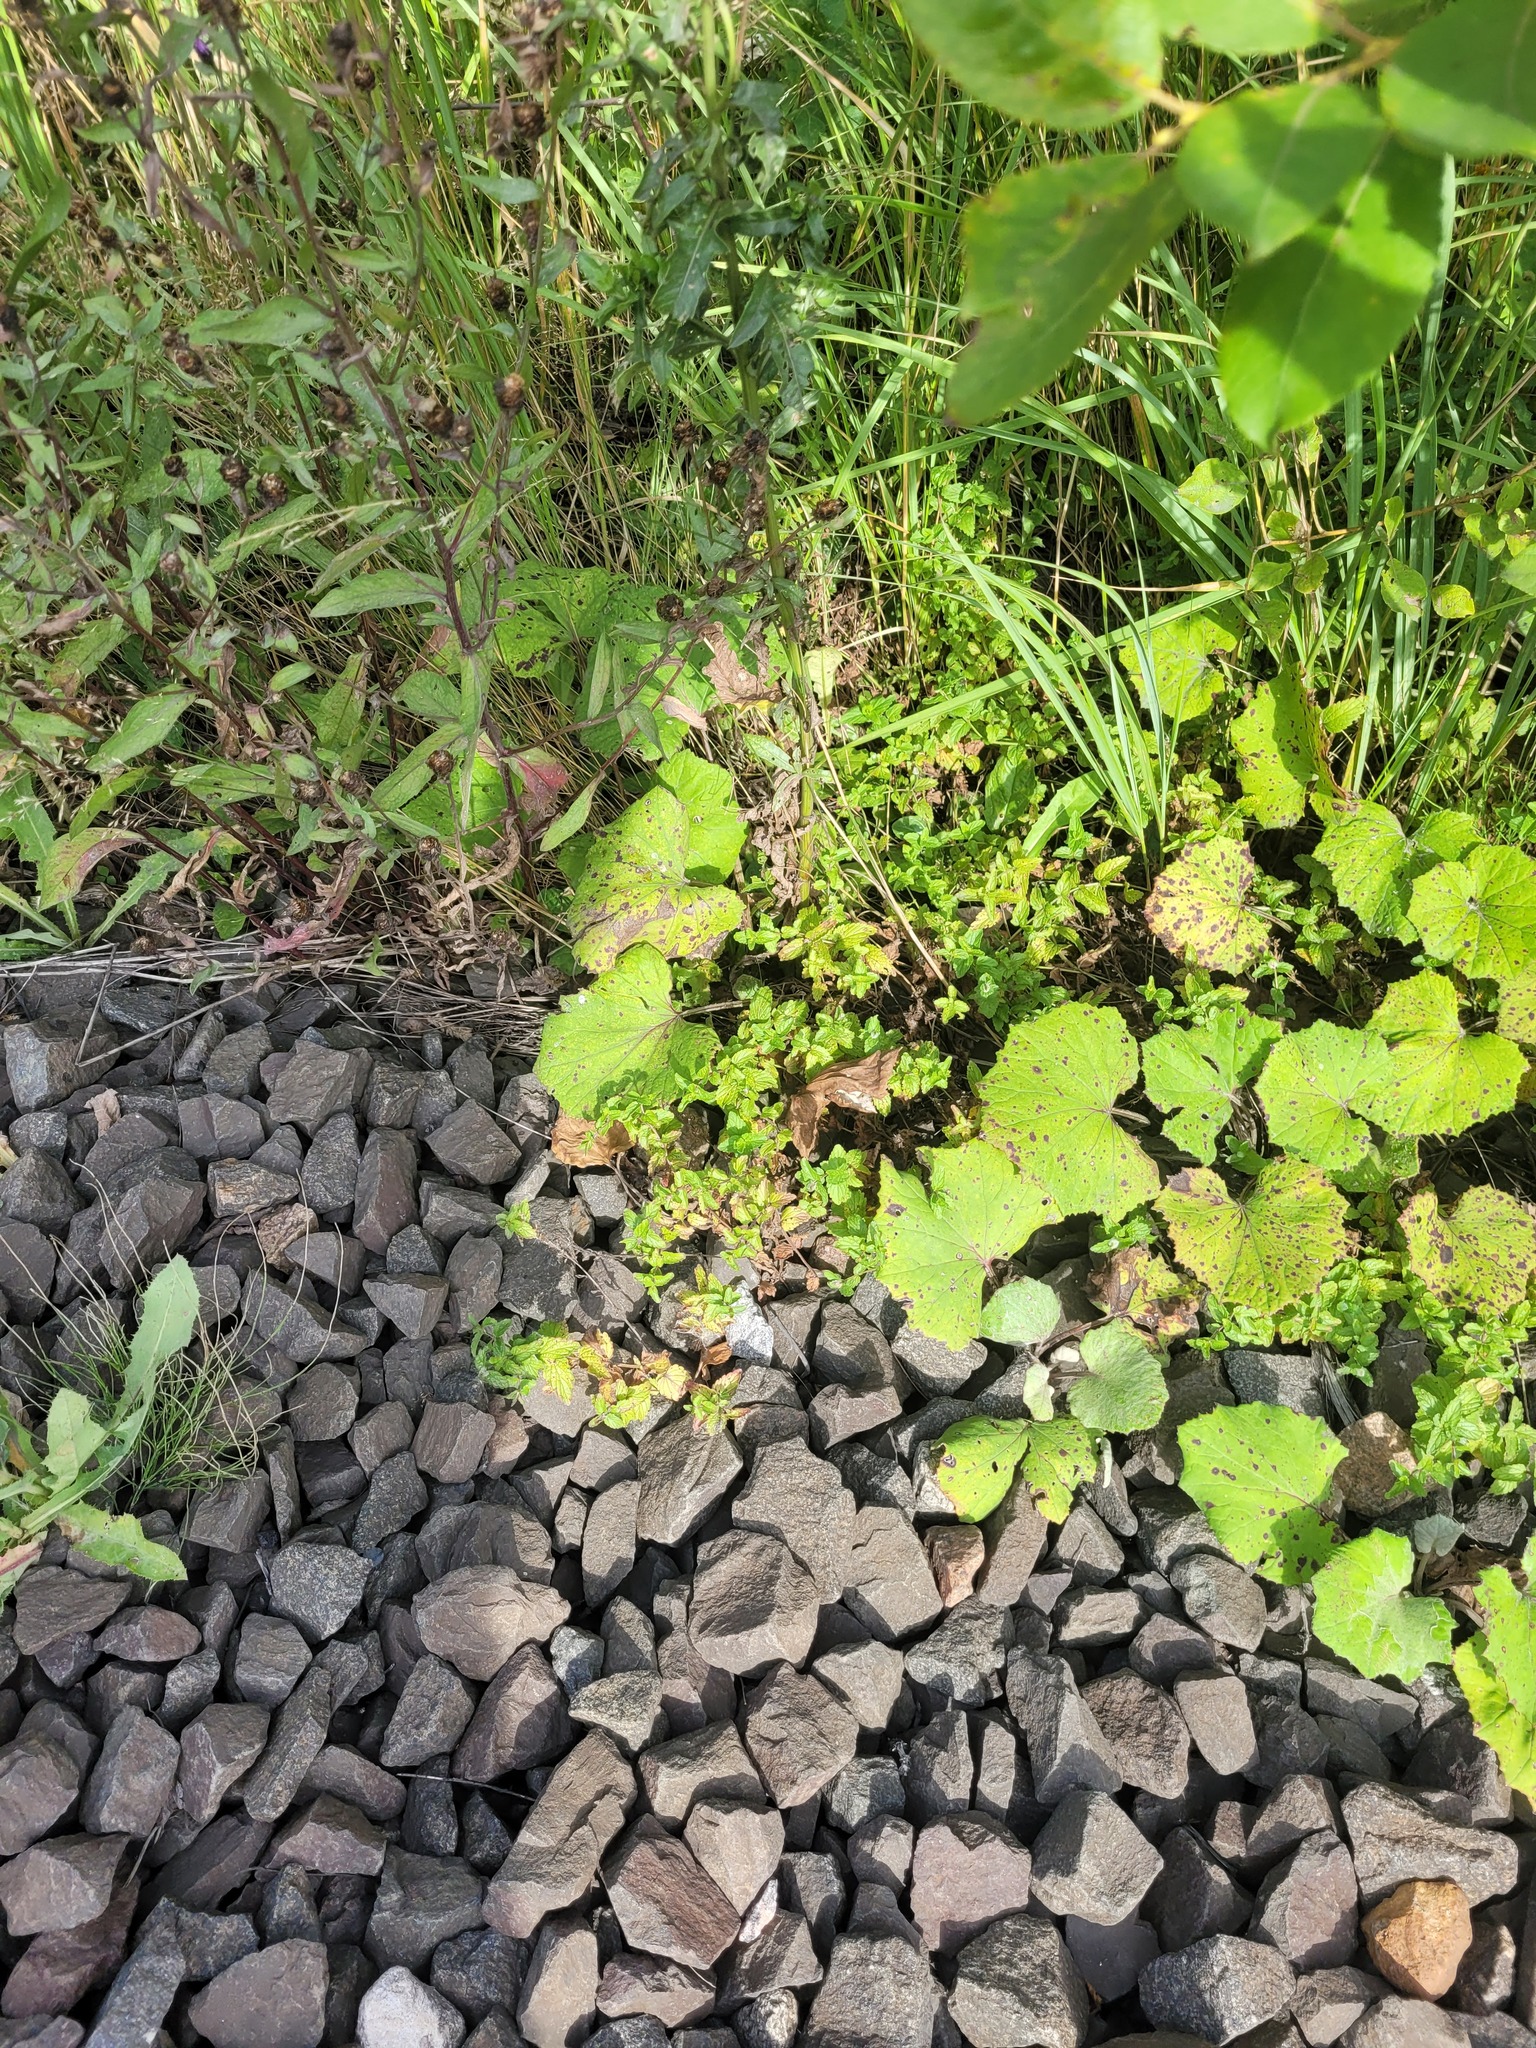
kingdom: Plantae
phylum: Tracheophyta
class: Magnoliopsida
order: Lamiales
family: Plantaginaceae
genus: Veronica
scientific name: Veronica chamaedrys
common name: Germander speedwell
